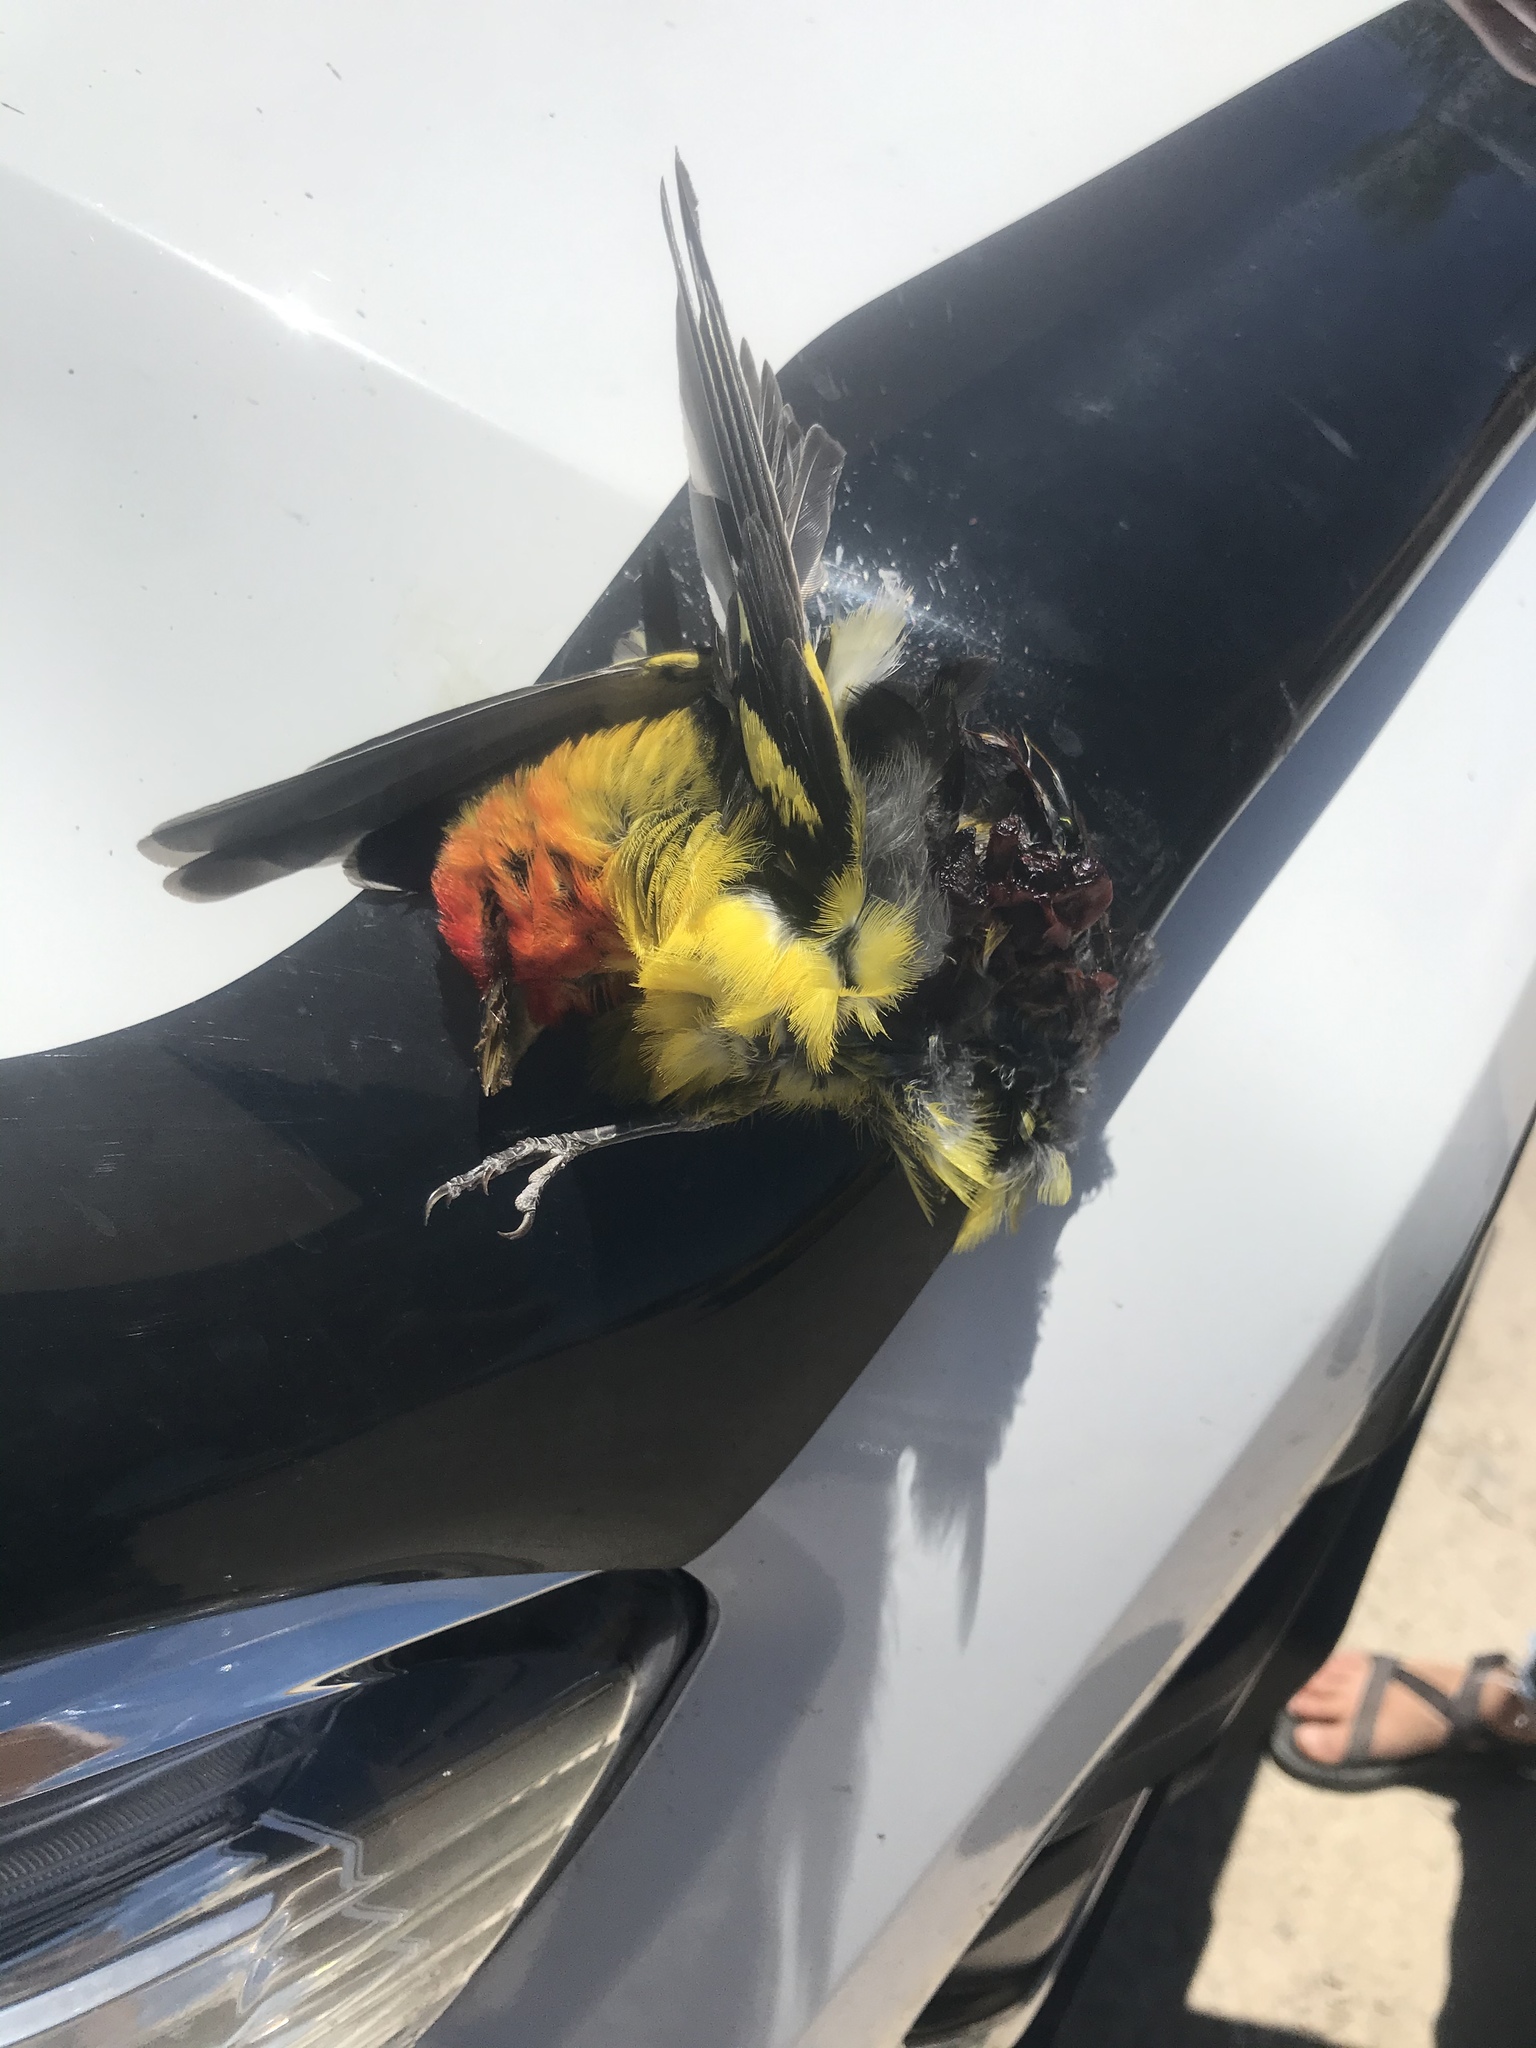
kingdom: Animalia
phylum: Chordata
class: Aves
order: Passeriformes
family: Cardinalidae
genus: Piranga
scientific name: Piranga ludoviciana
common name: Western tanager
